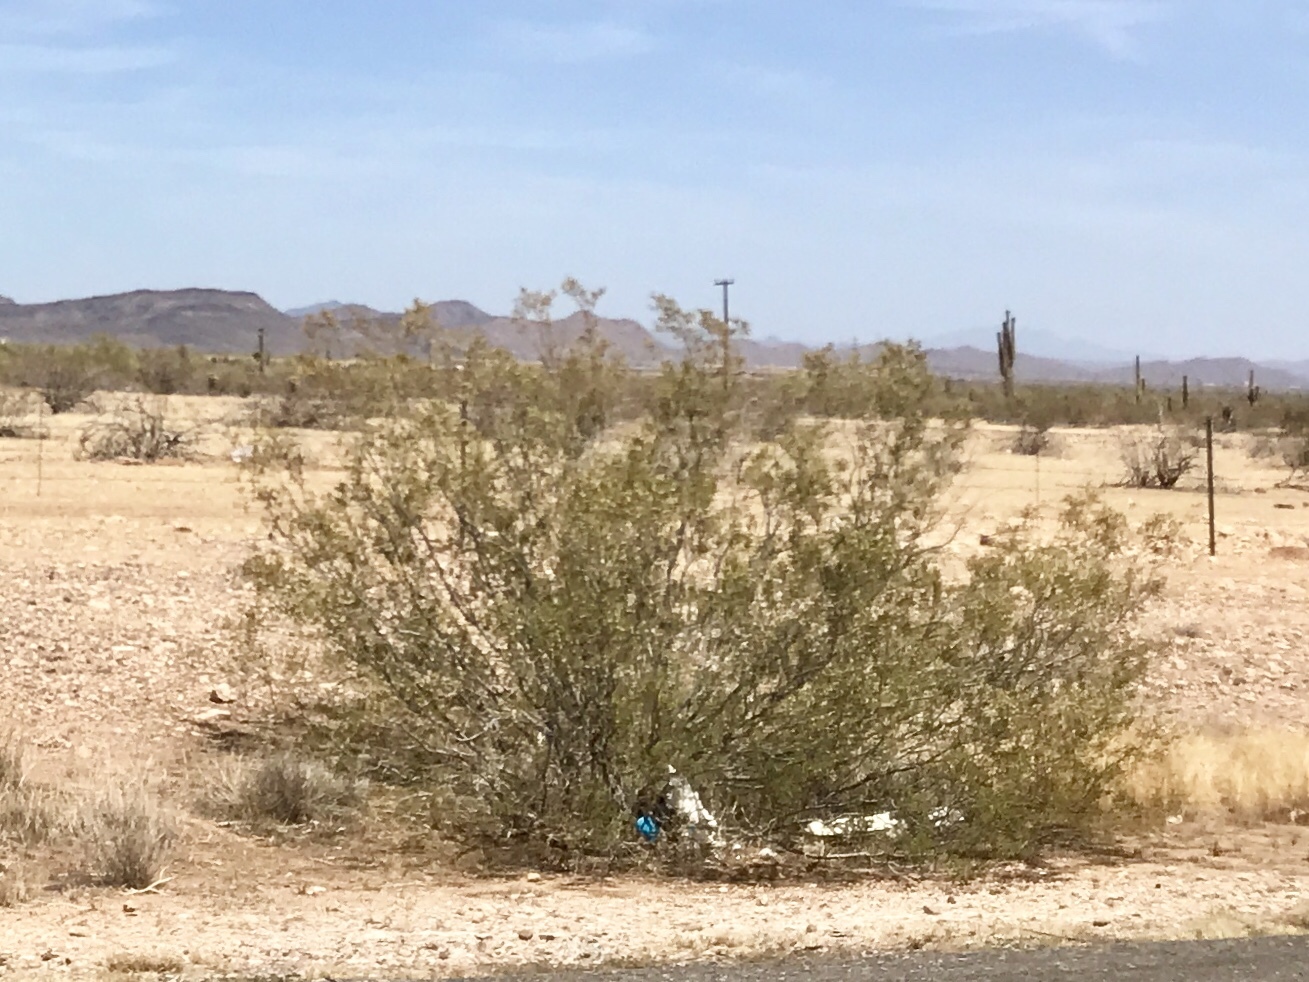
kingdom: Plantae
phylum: Tracheophyta
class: Magnoliopsida
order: Zygophyllales
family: Zygophyllaceae
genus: Larrea
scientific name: Larrea tridentata
